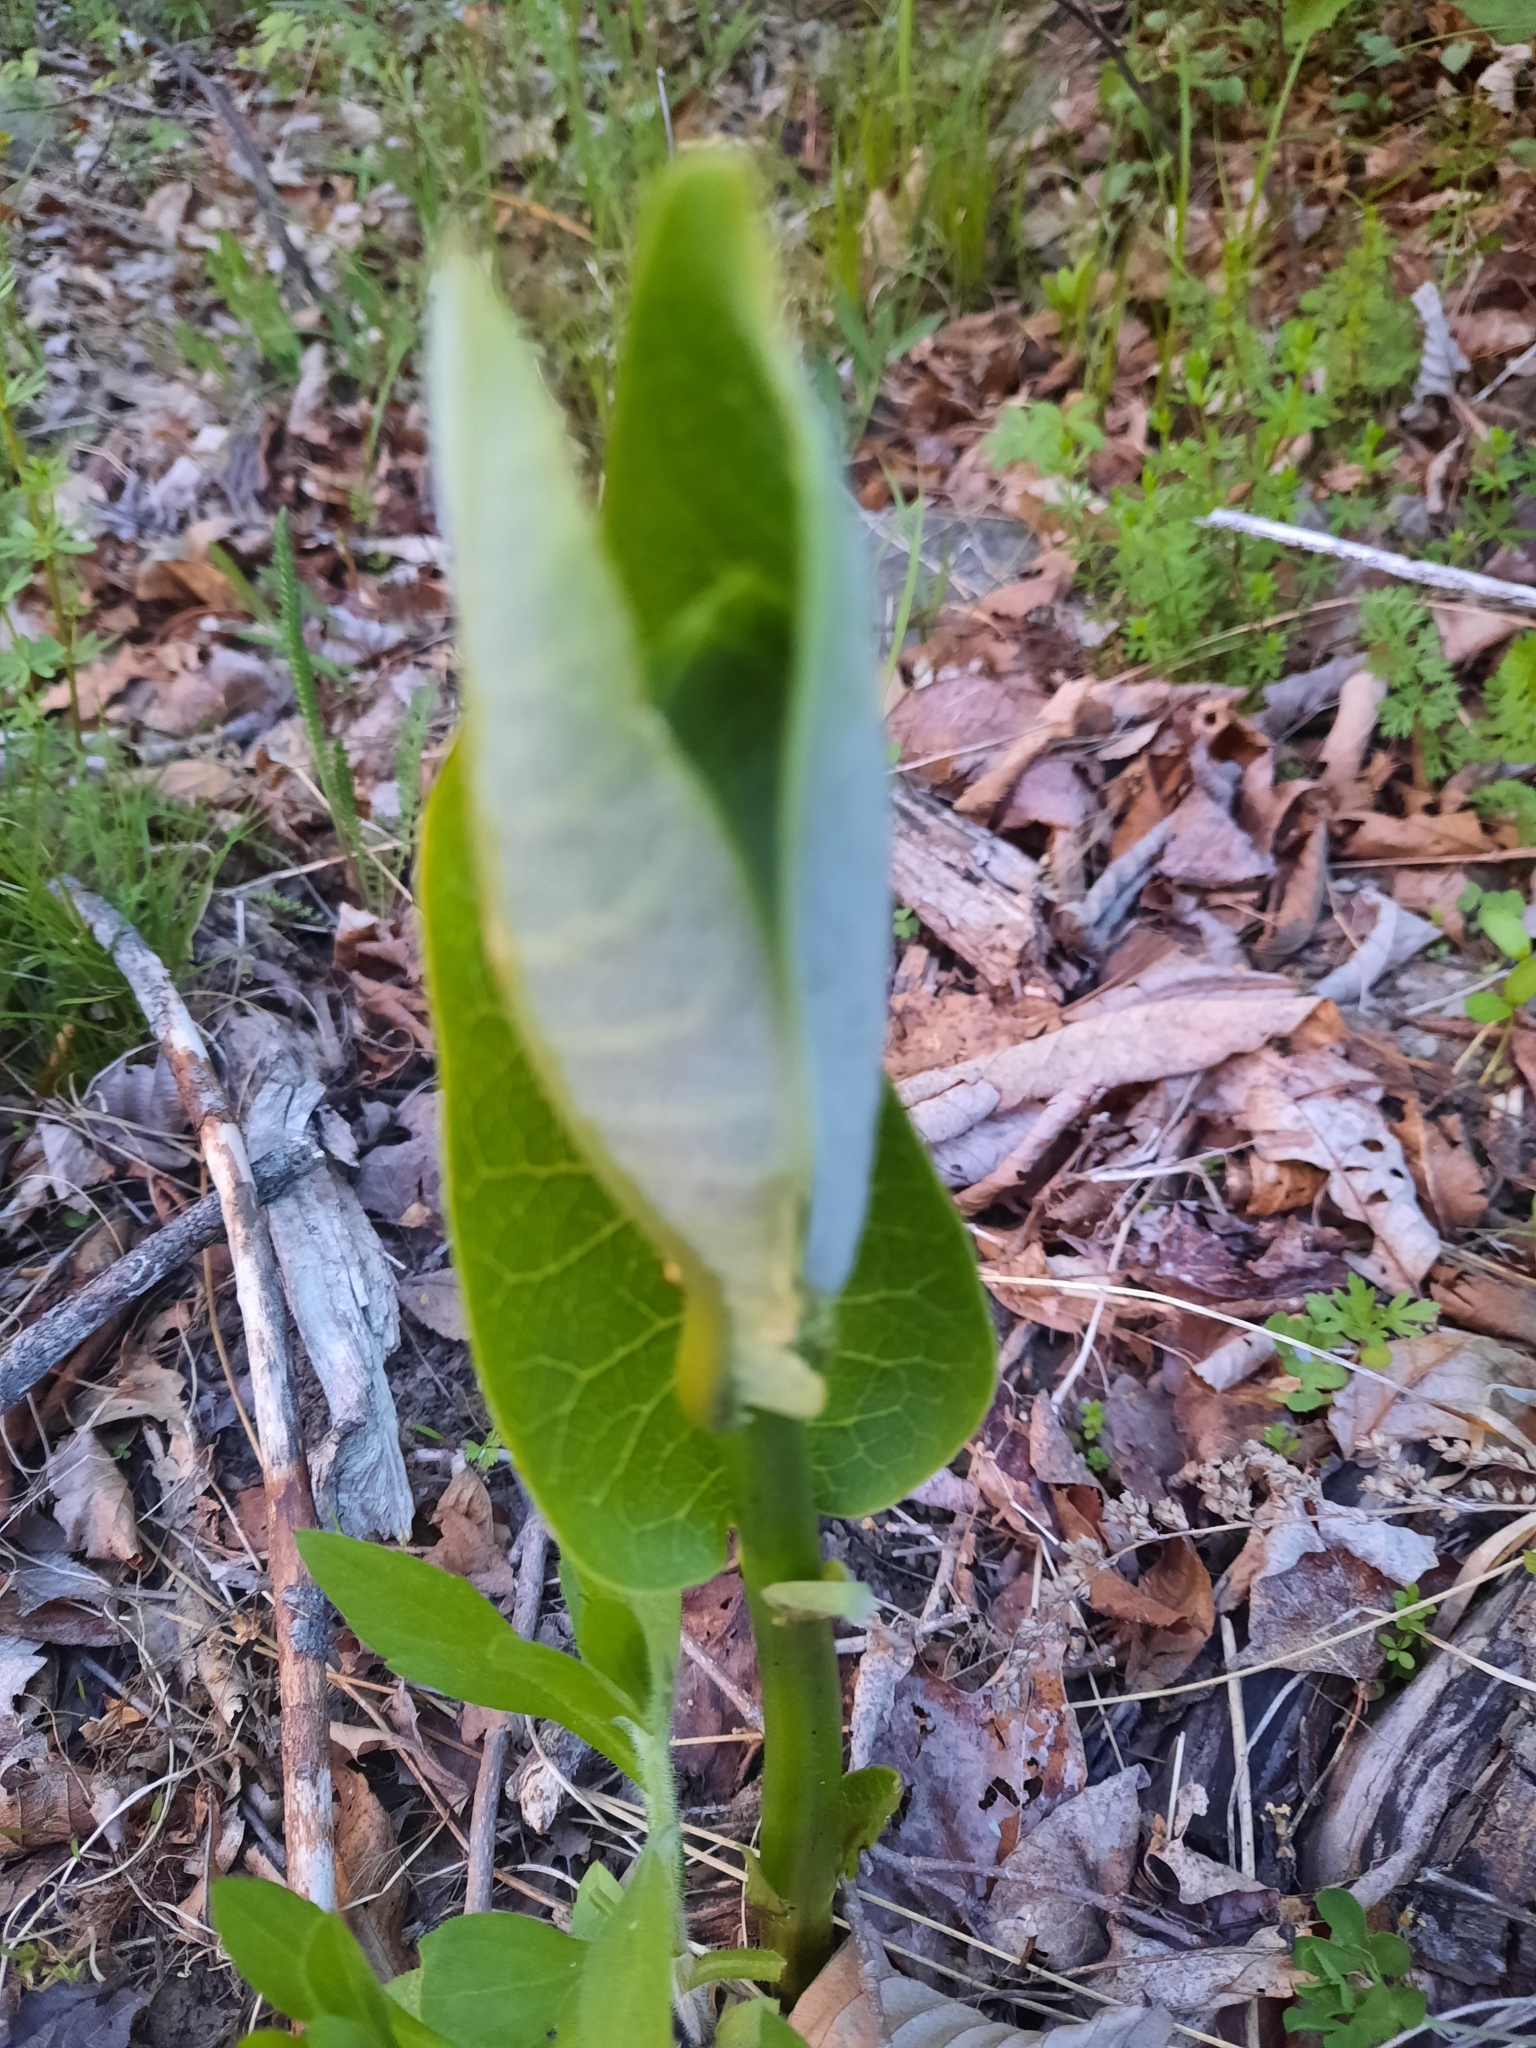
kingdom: Plantae
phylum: Tracheophyta
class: Magnoliopsida
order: Gentianales
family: Apocynaceae
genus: Asclepias
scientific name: Asclepias syriaca
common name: Common milkweed
